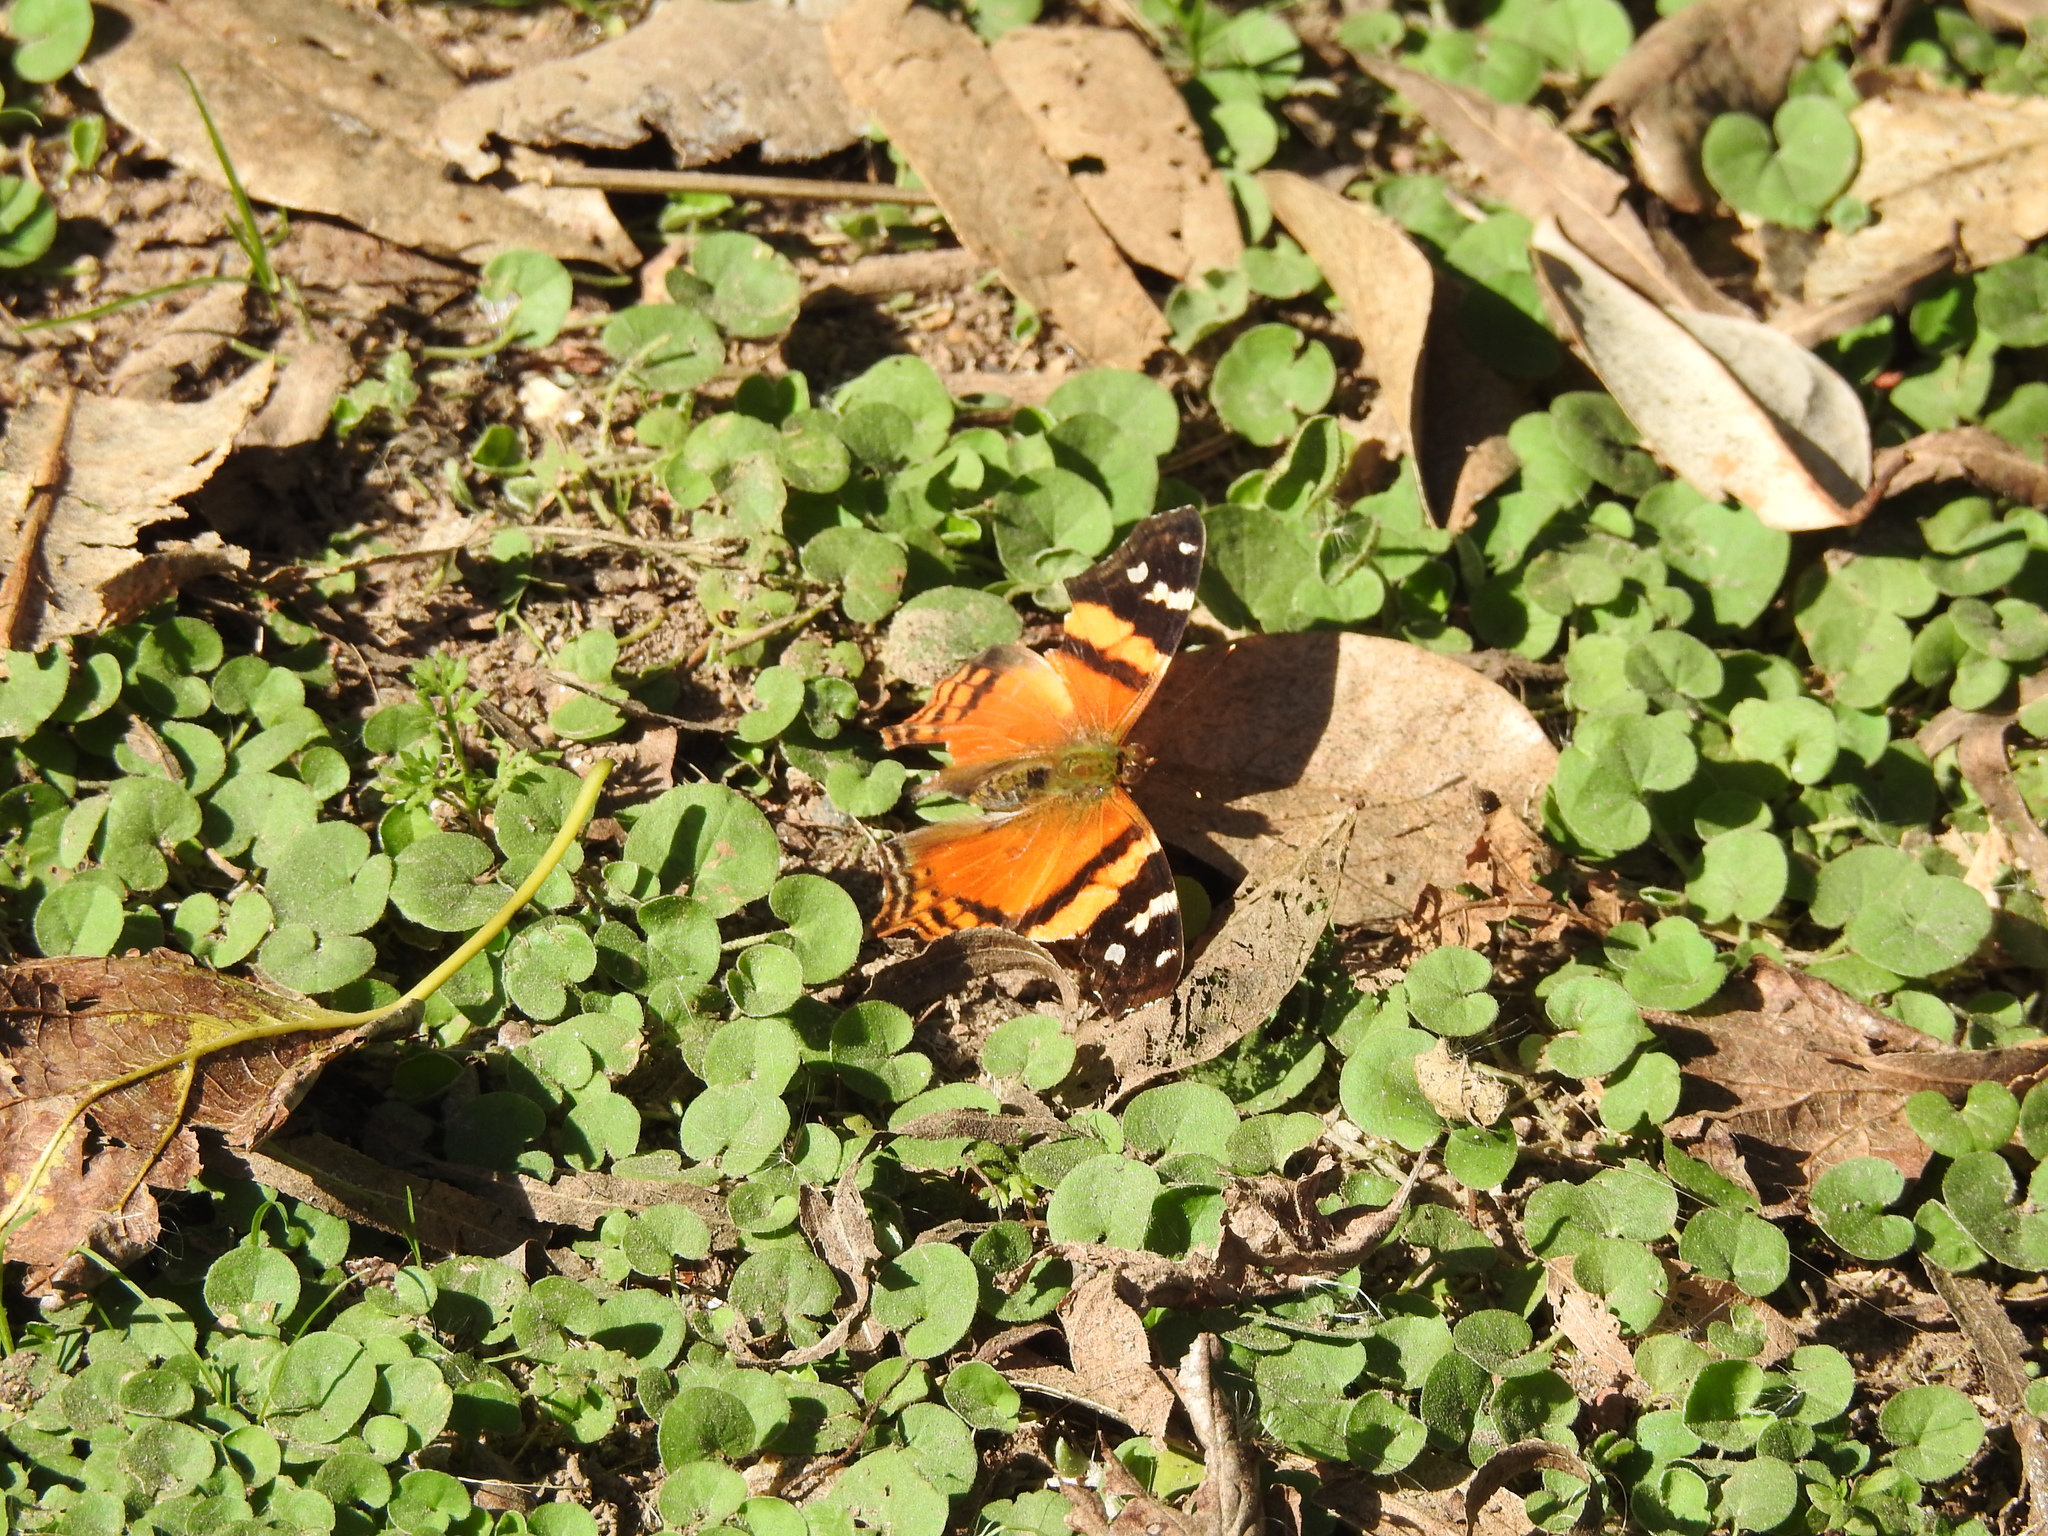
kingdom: Animalia
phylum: Arthropoda
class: Insecta
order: Lepidoptera
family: Nymphalidae
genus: Hypanartia
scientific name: Hypanartia bella
